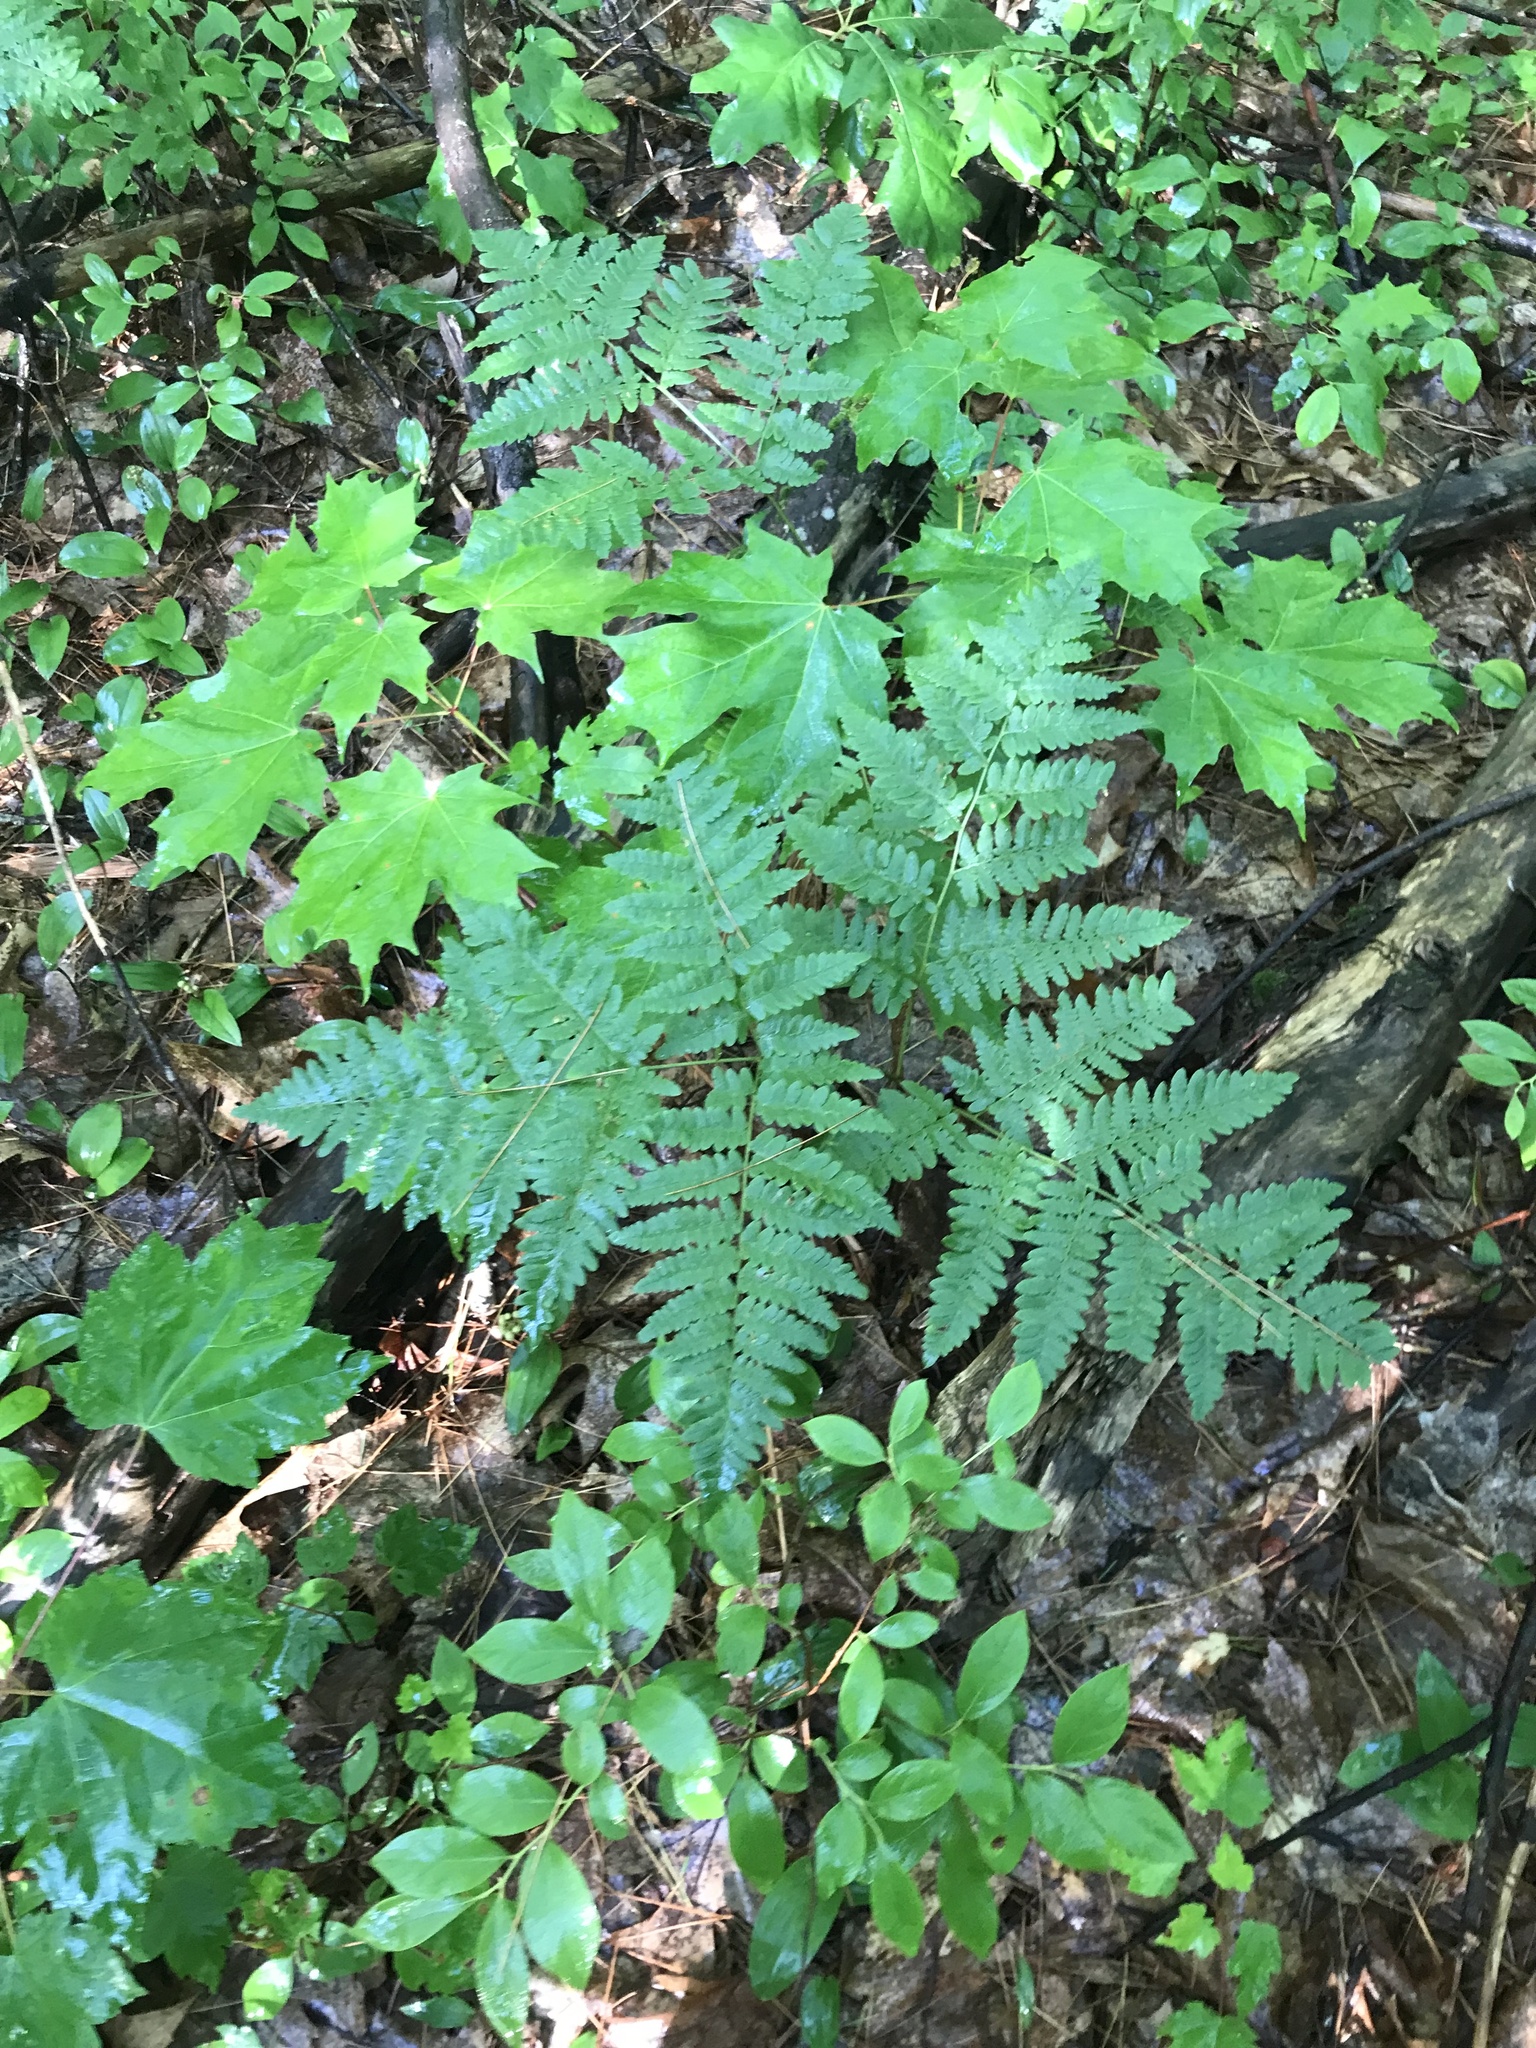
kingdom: Plantae
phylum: Tracheophyta
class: Polypodiopsida
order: Polypodiales
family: Dennstaedtiaceae
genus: Pteridium
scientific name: Pteridium aquilinum
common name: Bracken
